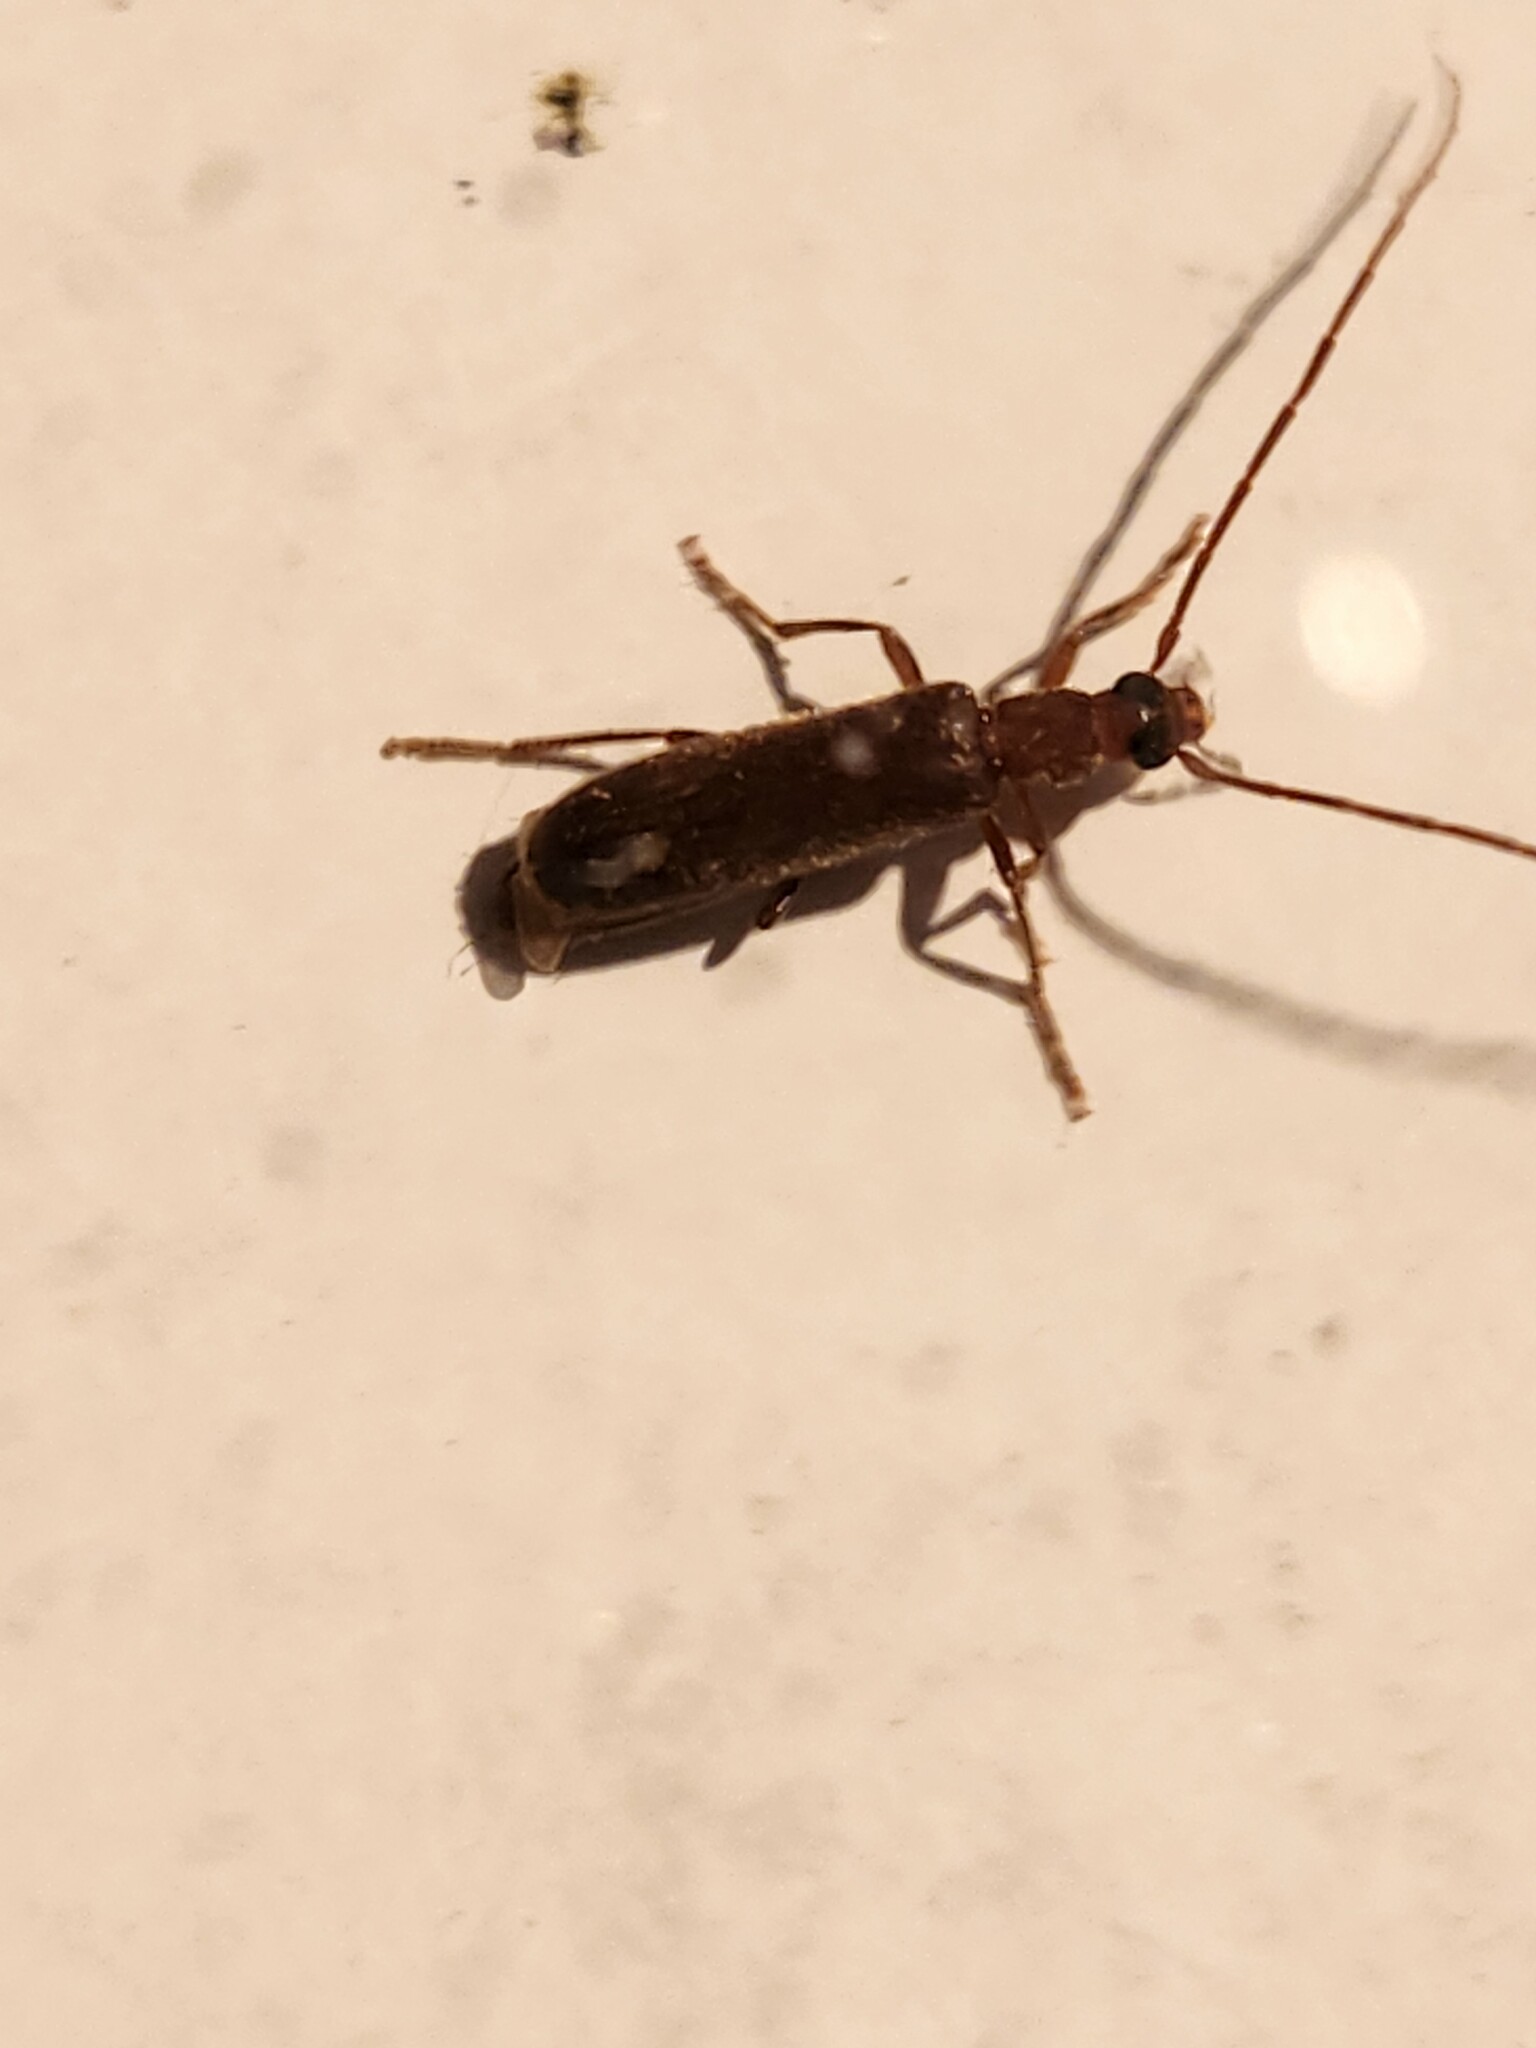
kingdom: Animalia
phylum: Arthropoda
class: Insecta
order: Coleoptera
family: Oedemeridae
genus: Sparedrus
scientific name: Sparedrus aspersus
